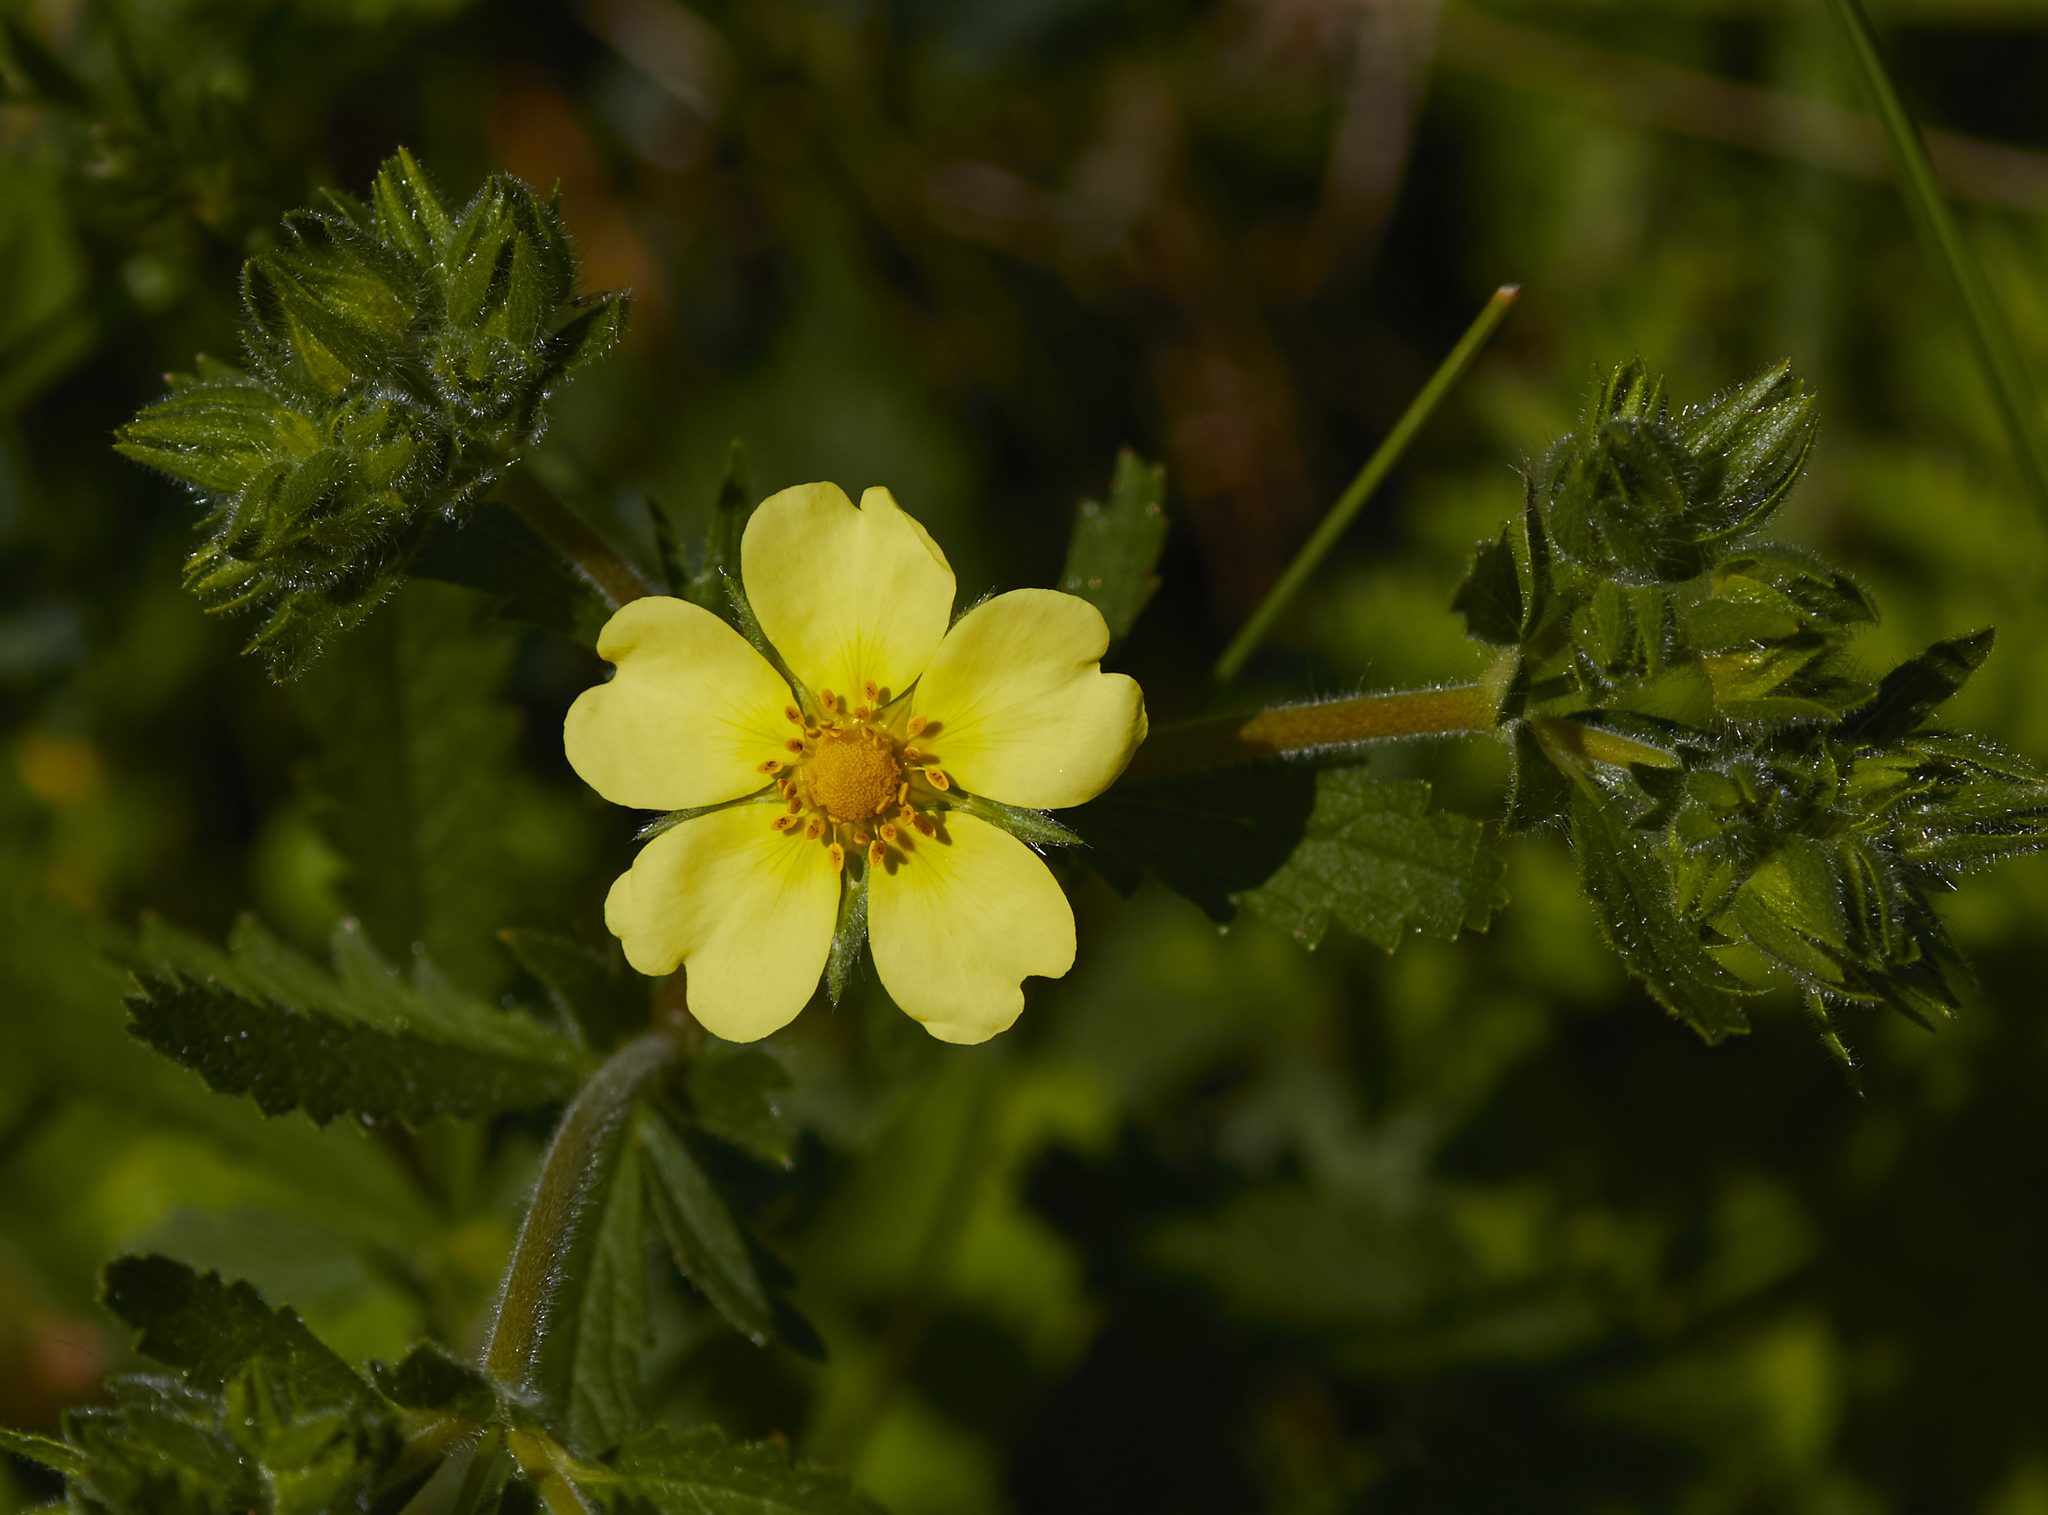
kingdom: Plantae
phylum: Tracheophyta
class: Magnoliopsida
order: Rosales
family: Rosaceae
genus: Potentilla
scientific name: Potentilla recta
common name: Sulphur cinquefoil
